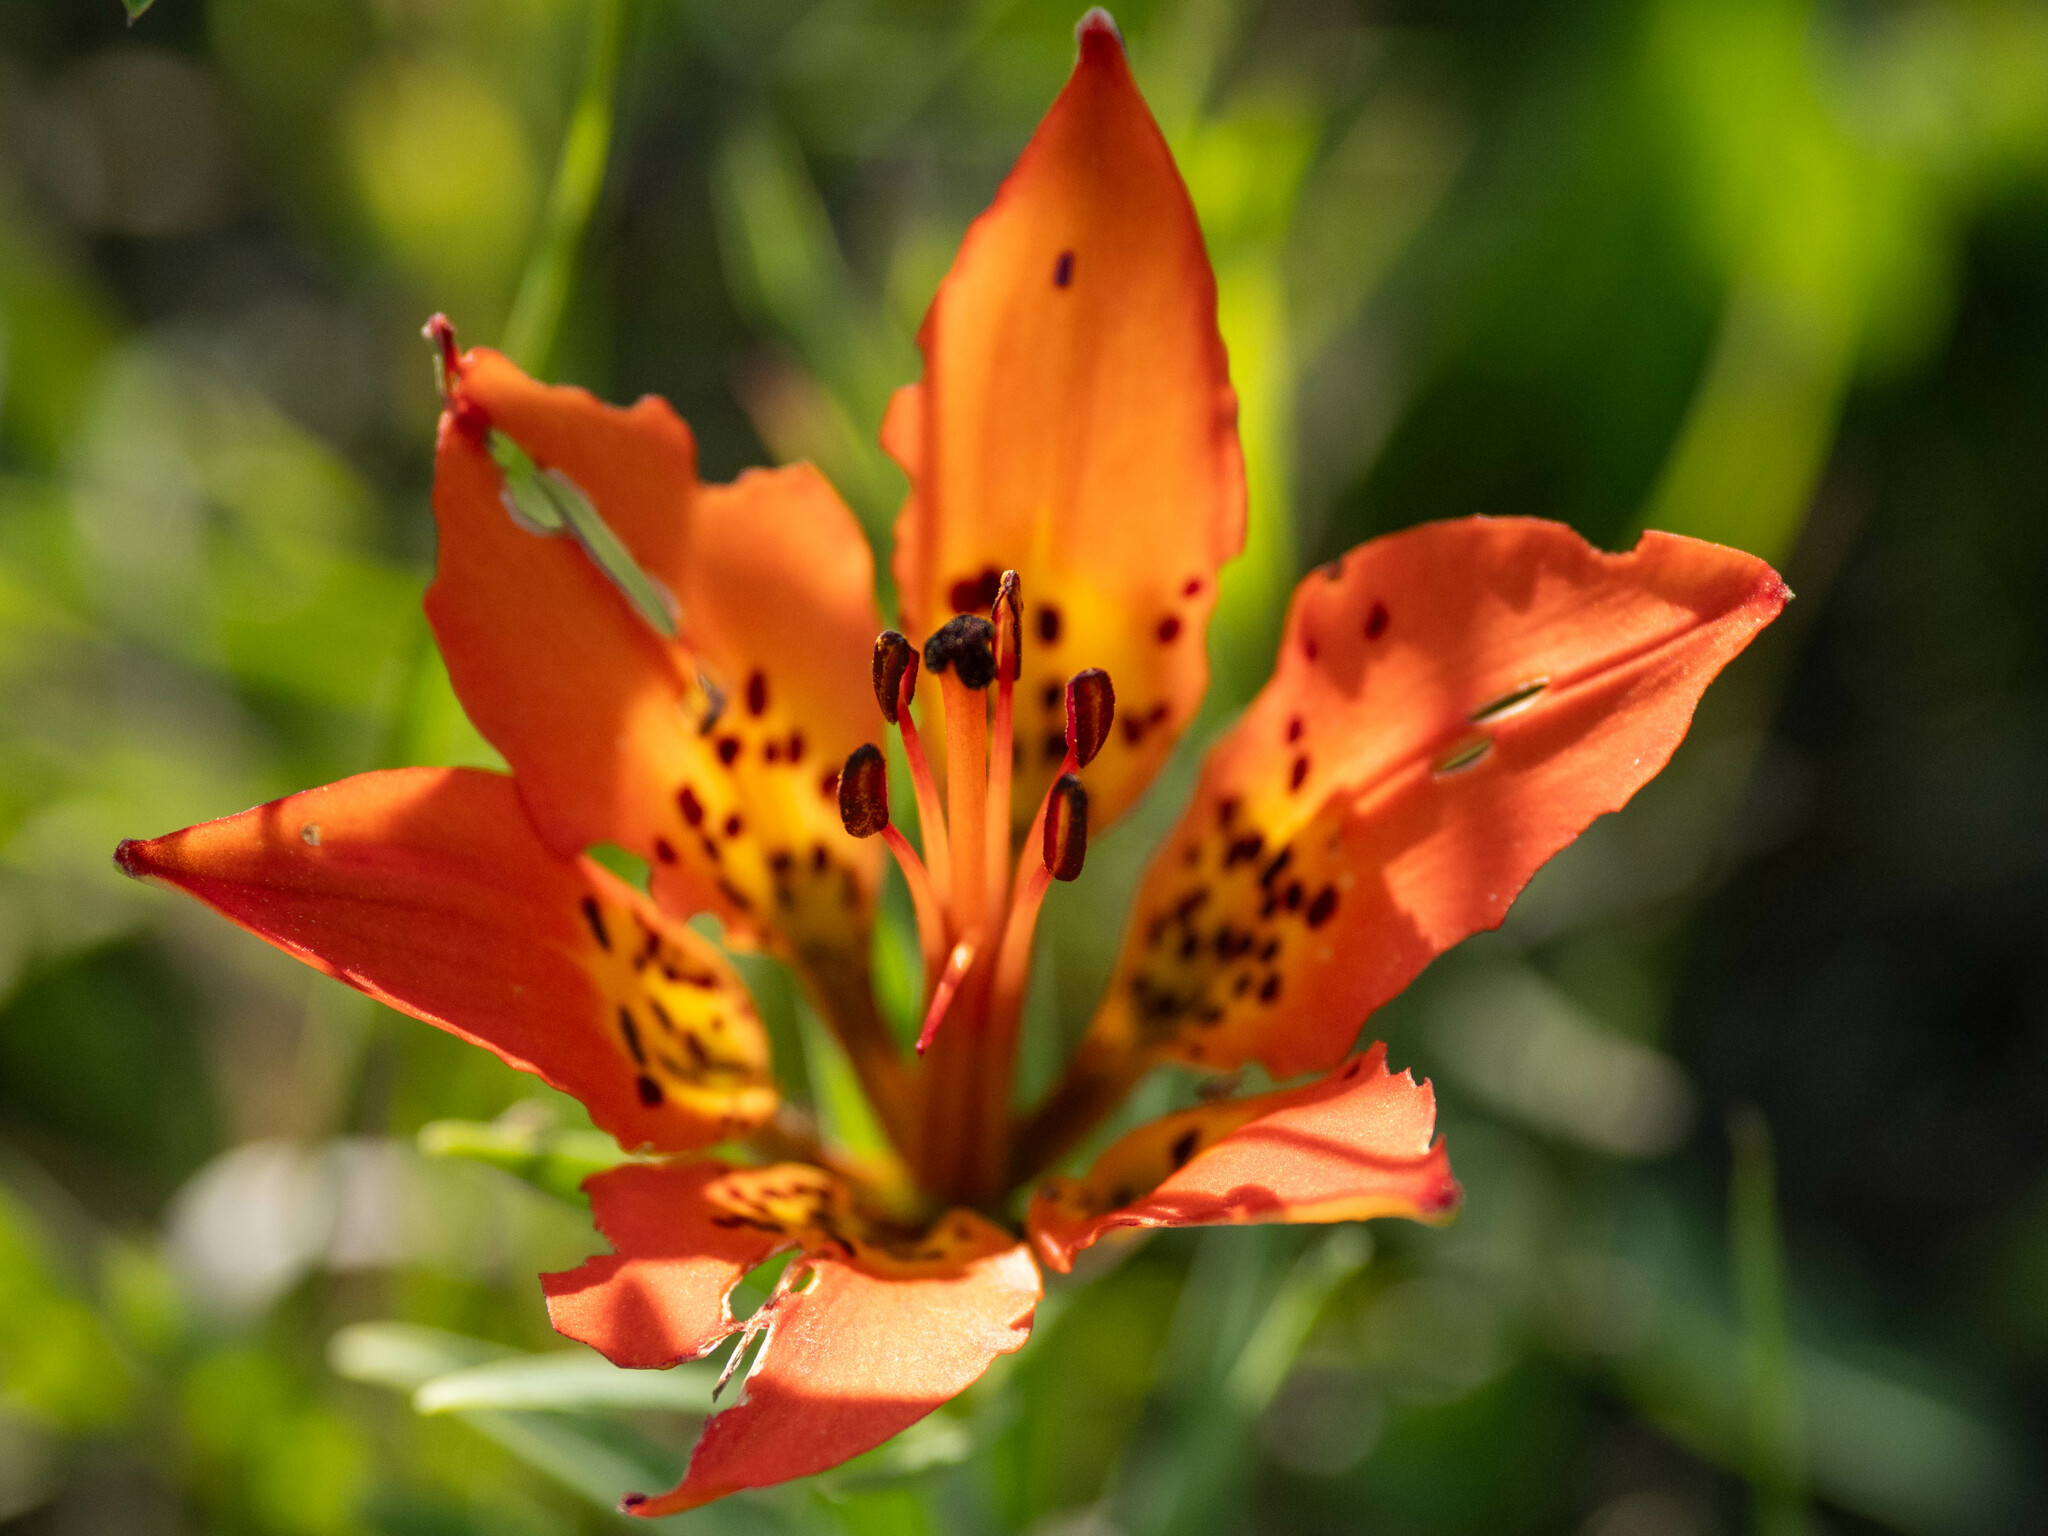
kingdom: Plantae
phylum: Tracheophyta
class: Liliopsida
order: Liliales
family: Liliaceae
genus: Lilium
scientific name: Lilium philadelphicum
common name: Red lily
